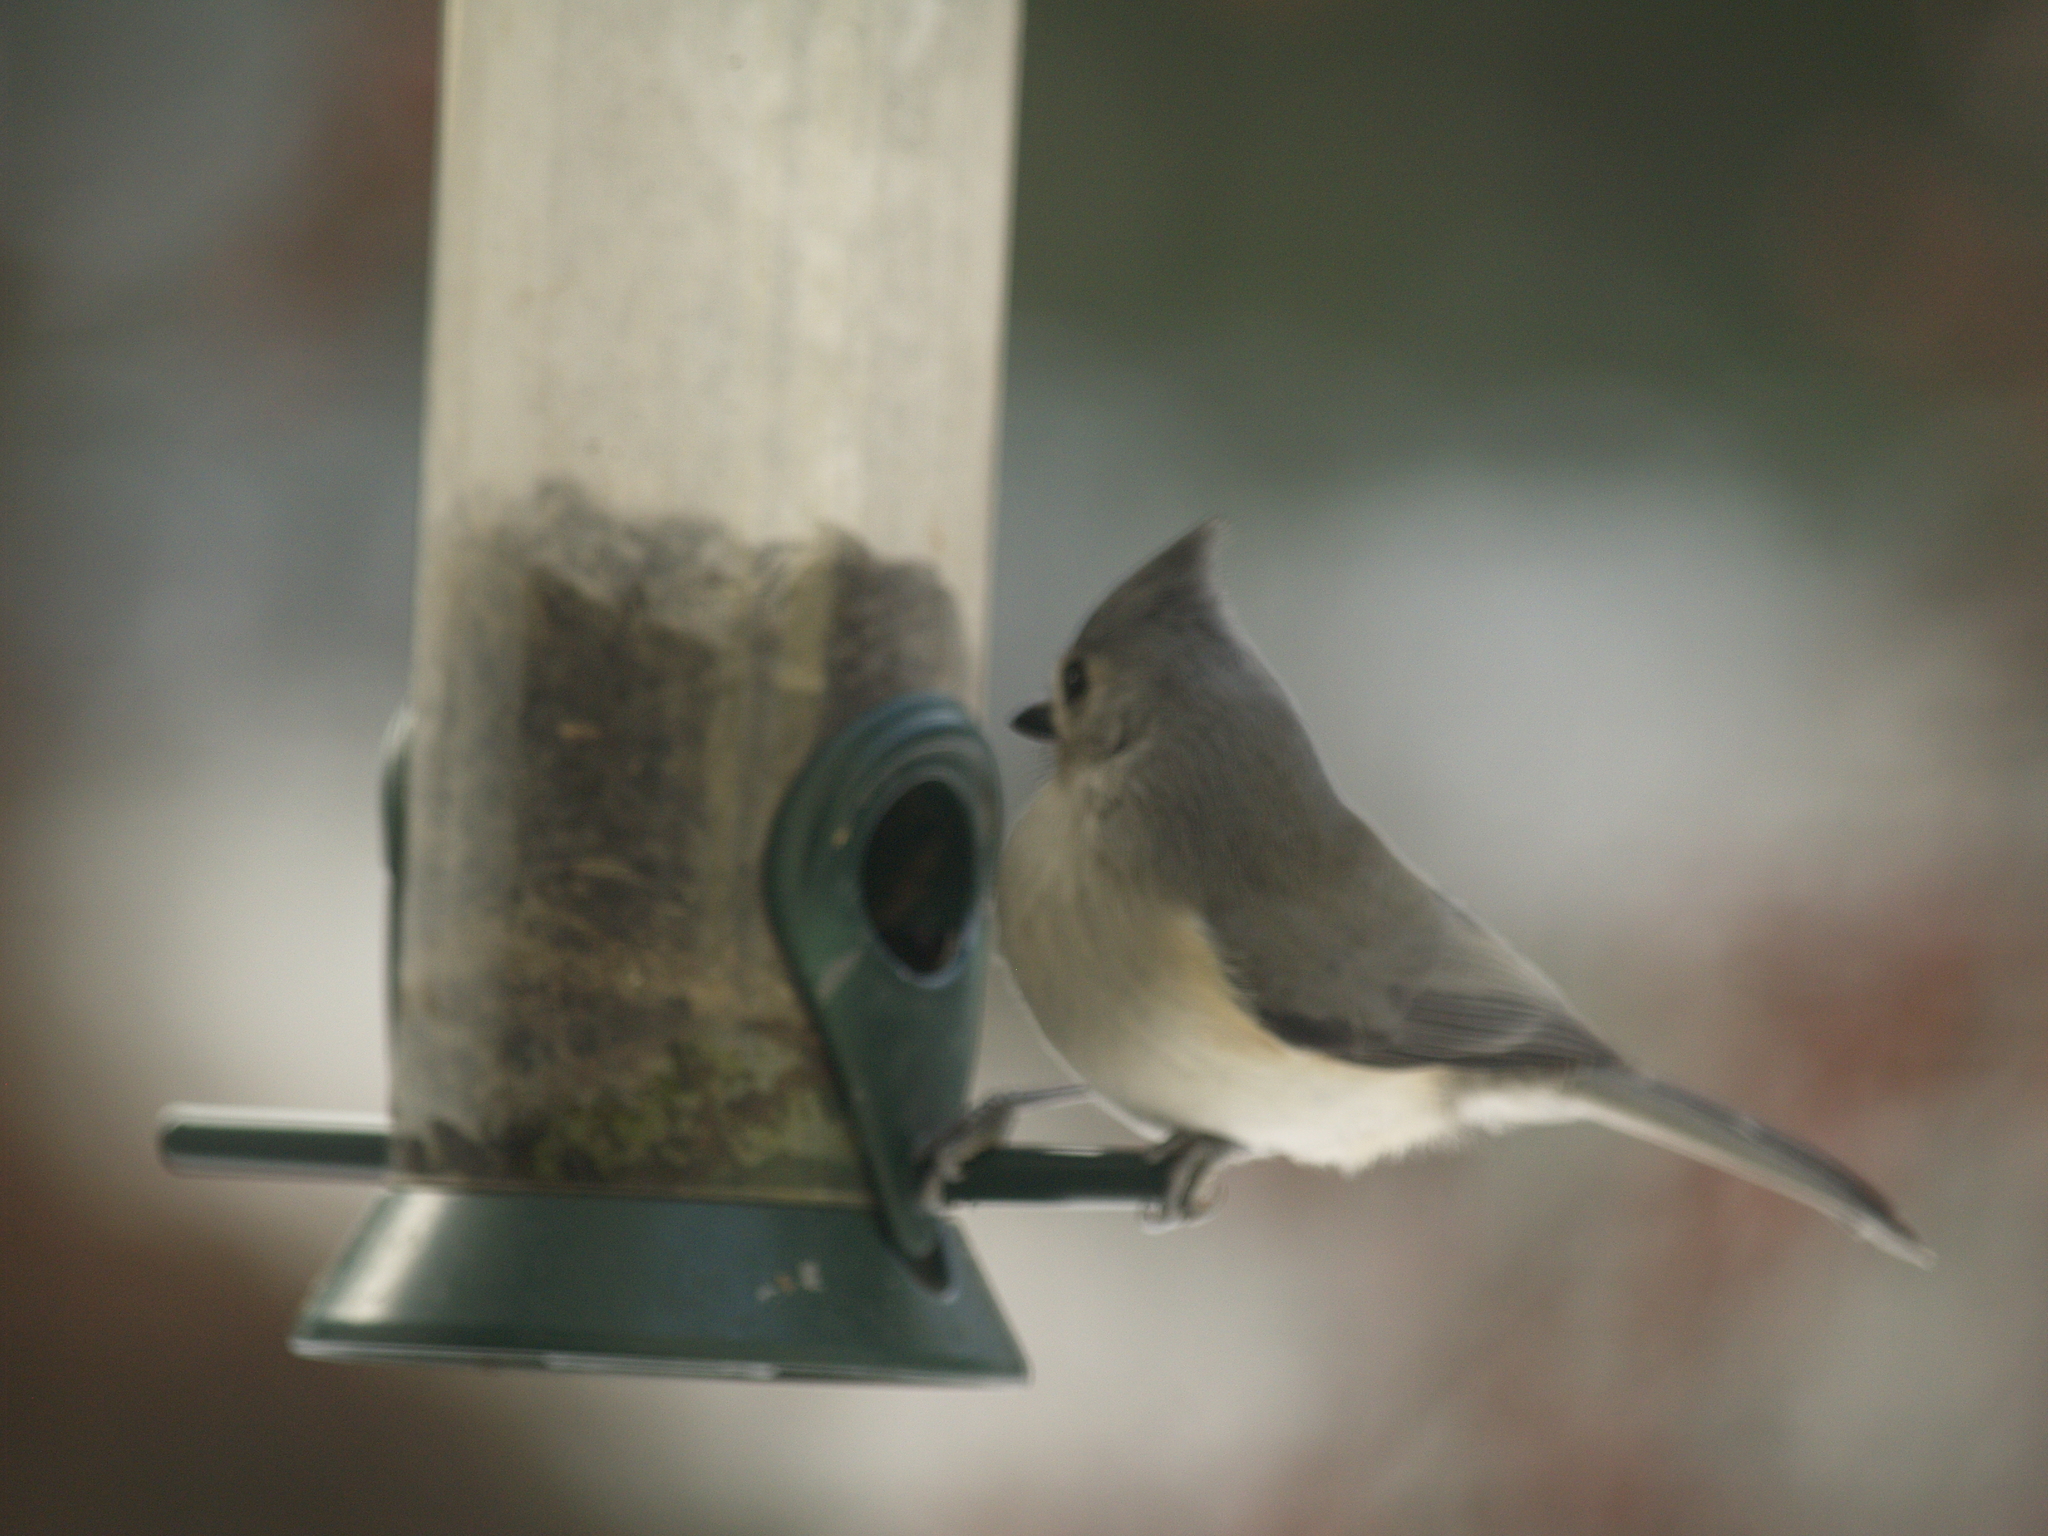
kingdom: Animalia
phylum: Chordata
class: Aves
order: Passeriformes
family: Paridae
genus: Baeolophus
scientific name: Baeolophus bicolor
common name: Tufted titmouse
